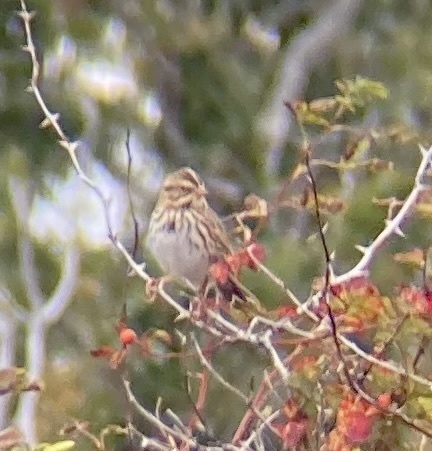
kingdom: Animalia
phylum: Chordata
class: Aves
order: Passeriformes
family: Passerellidae
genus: Passerculus
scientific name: Passerculus sandwichensis
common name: Savannah sparrow
